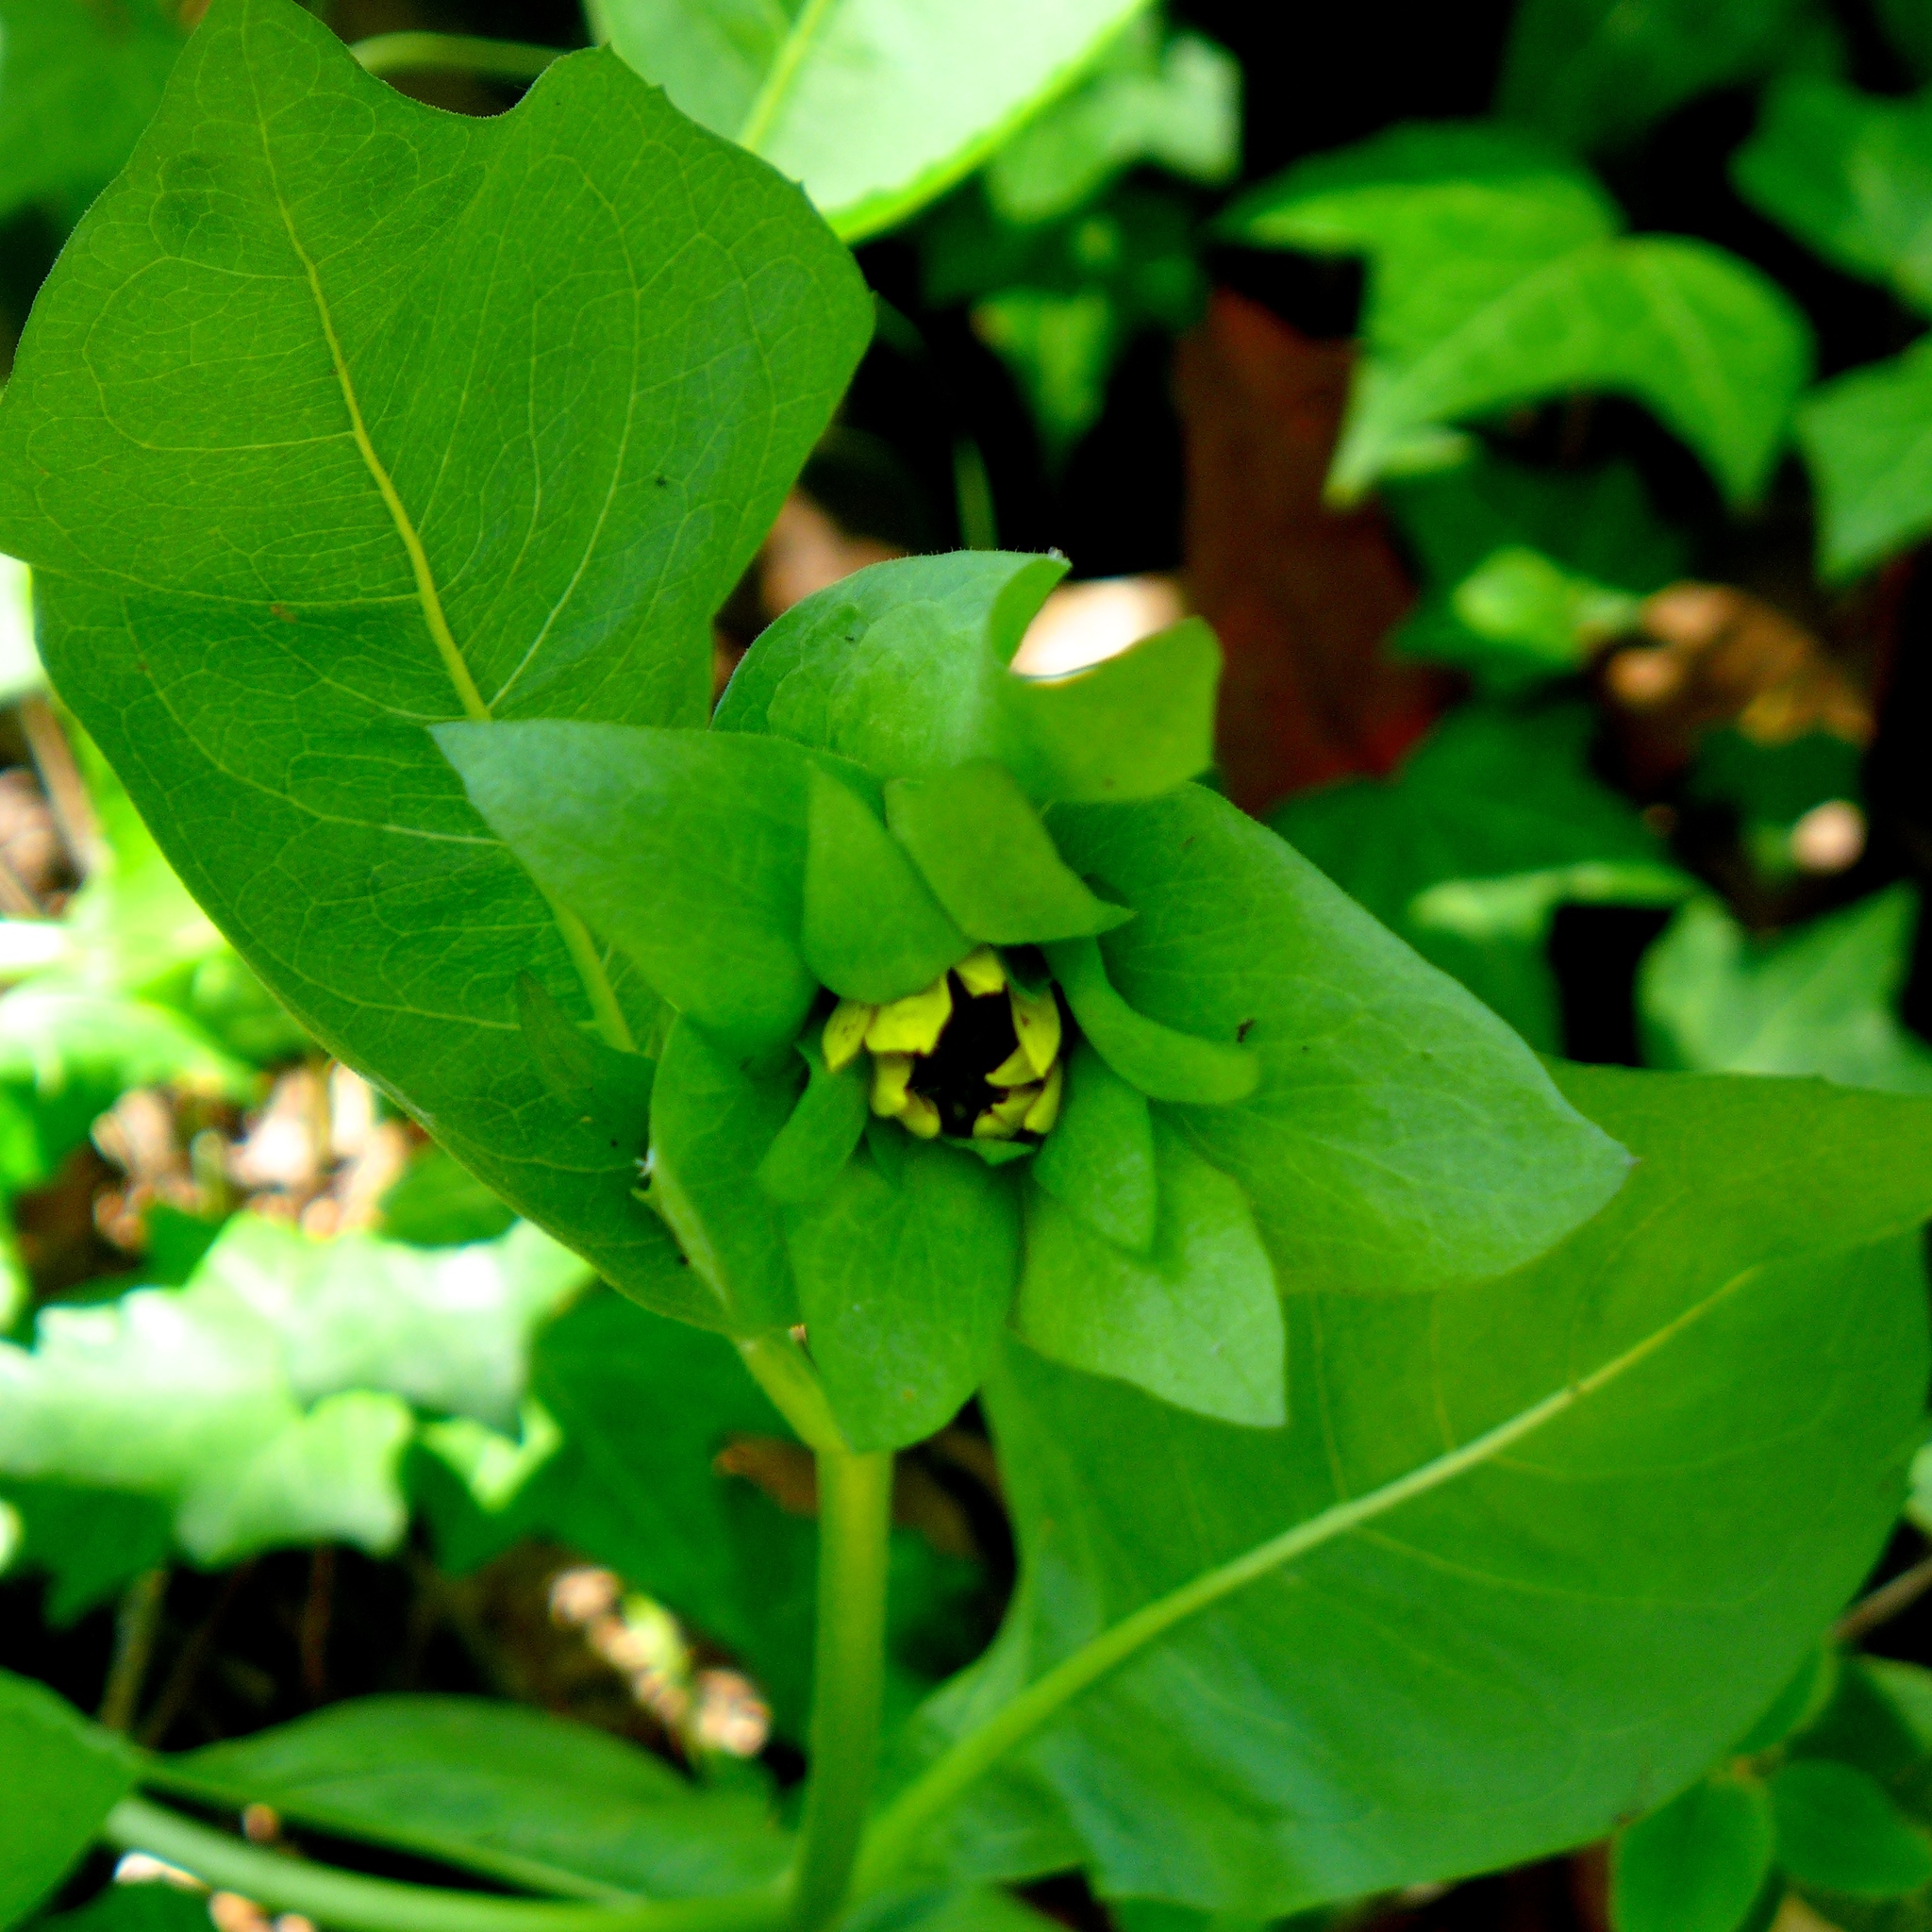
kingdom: Plantae
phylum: Tracheophyta
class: Magnoliopsida
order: Asterales
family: Asteraceae
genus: Wyethia
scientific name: Wyethia glabra
